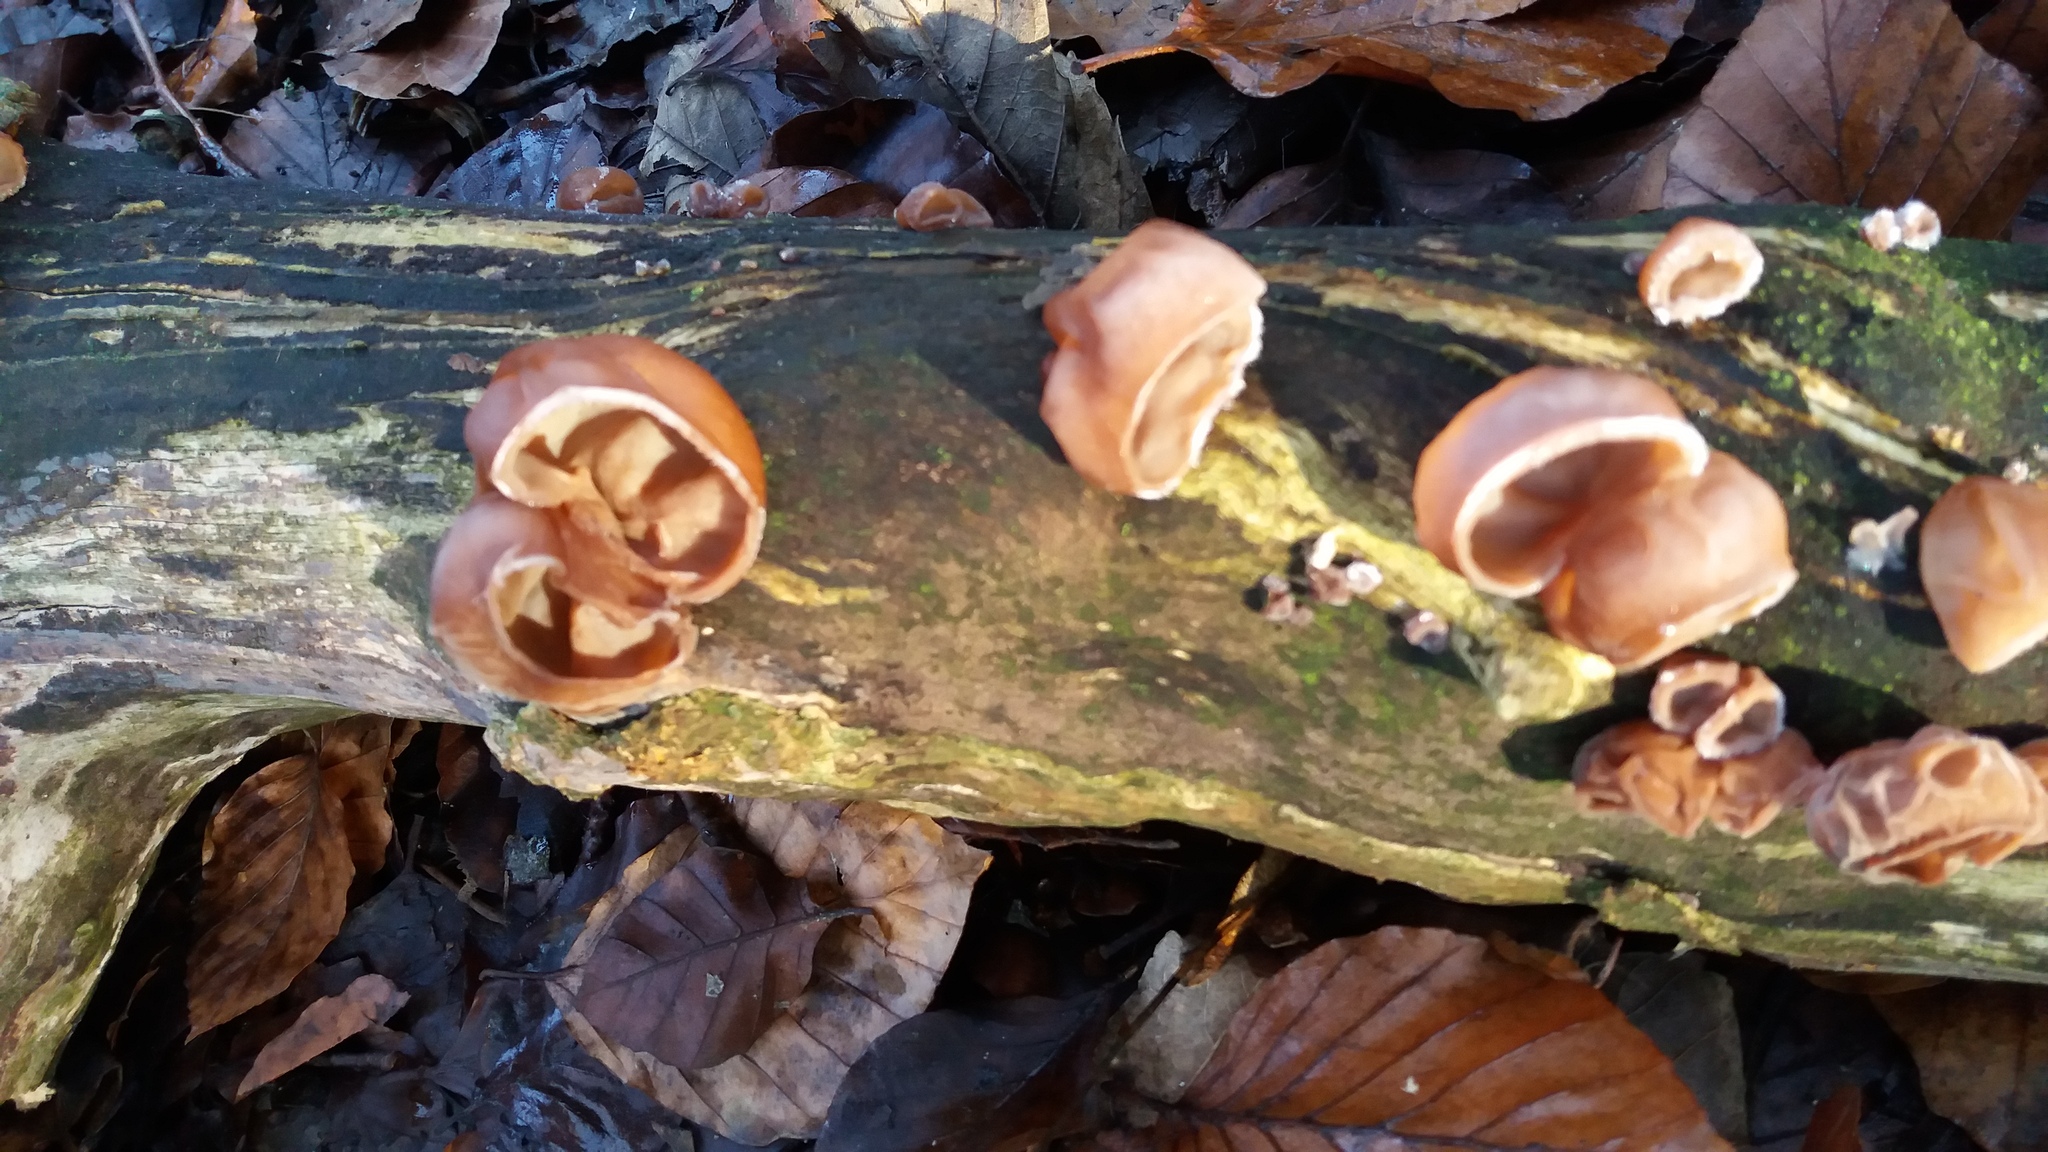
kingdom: Fungi
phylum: Basidiomycota
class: Agaricomycetes
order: Auriculariales
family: Auriculariaceae
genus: Auricularia
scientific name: Auricularia auricula-judae
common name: Jelly ear
